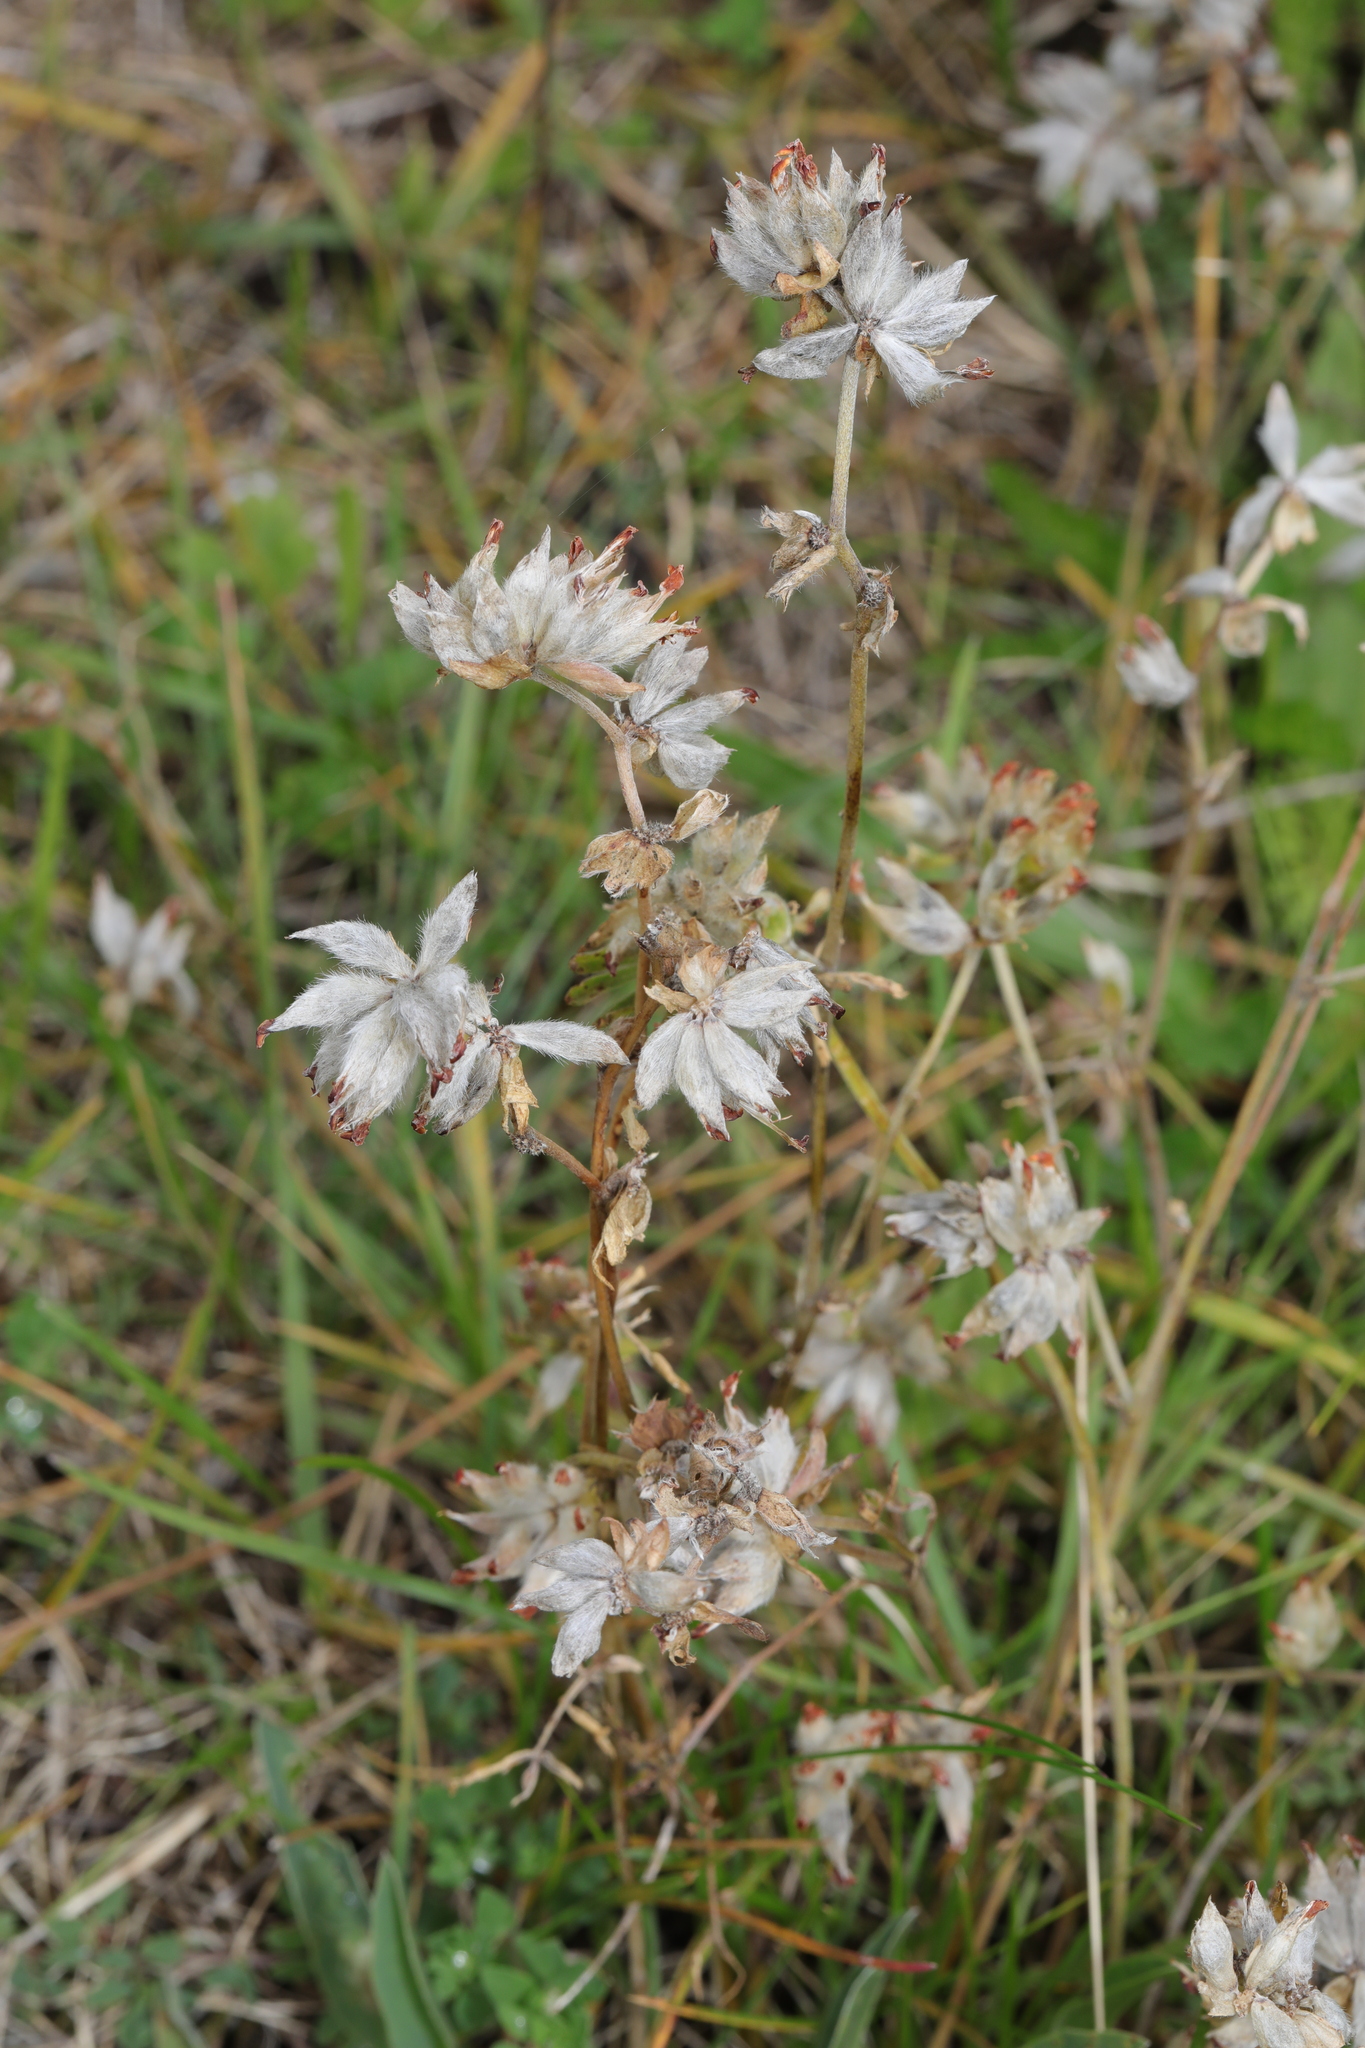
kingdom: Plantae
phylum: Tracheophyta
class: Magnoliopsida
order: Fabales
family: Fabaceae
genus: Anthyllis
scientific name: Anthyllis vulneraria
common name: Kidney vetch
